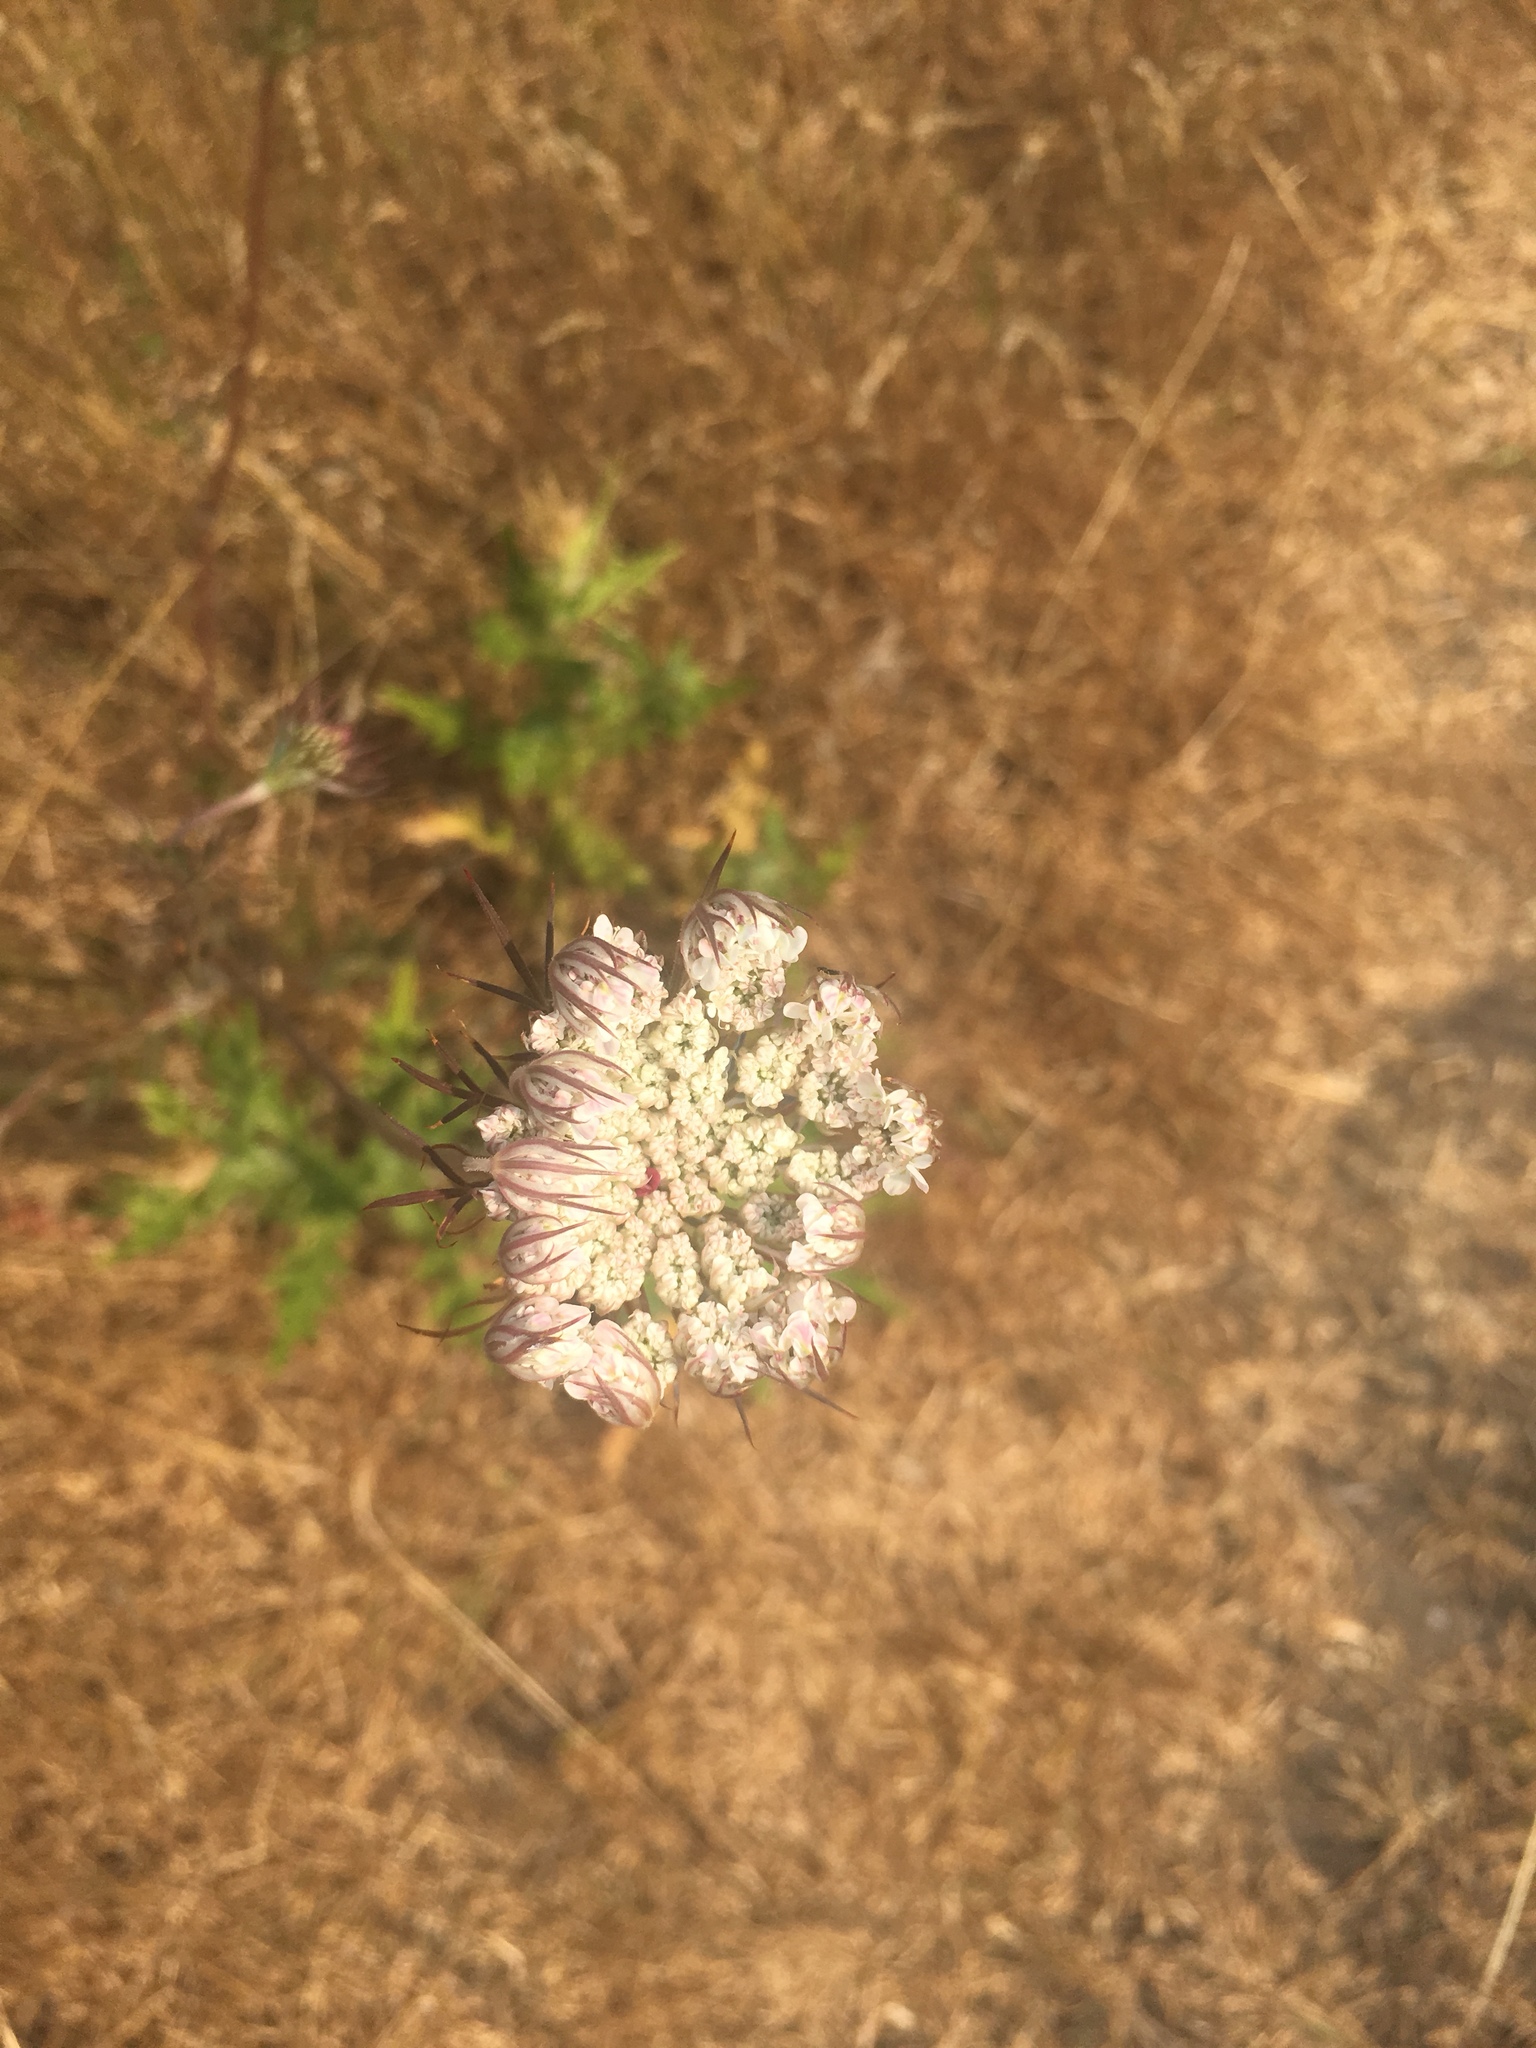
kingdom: Plantae
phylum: Tracheophyta
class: Magnoliopsida
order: Apiales
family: Apiaceae
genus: Daucus
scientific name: Daucus carota
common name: Wild carrot
